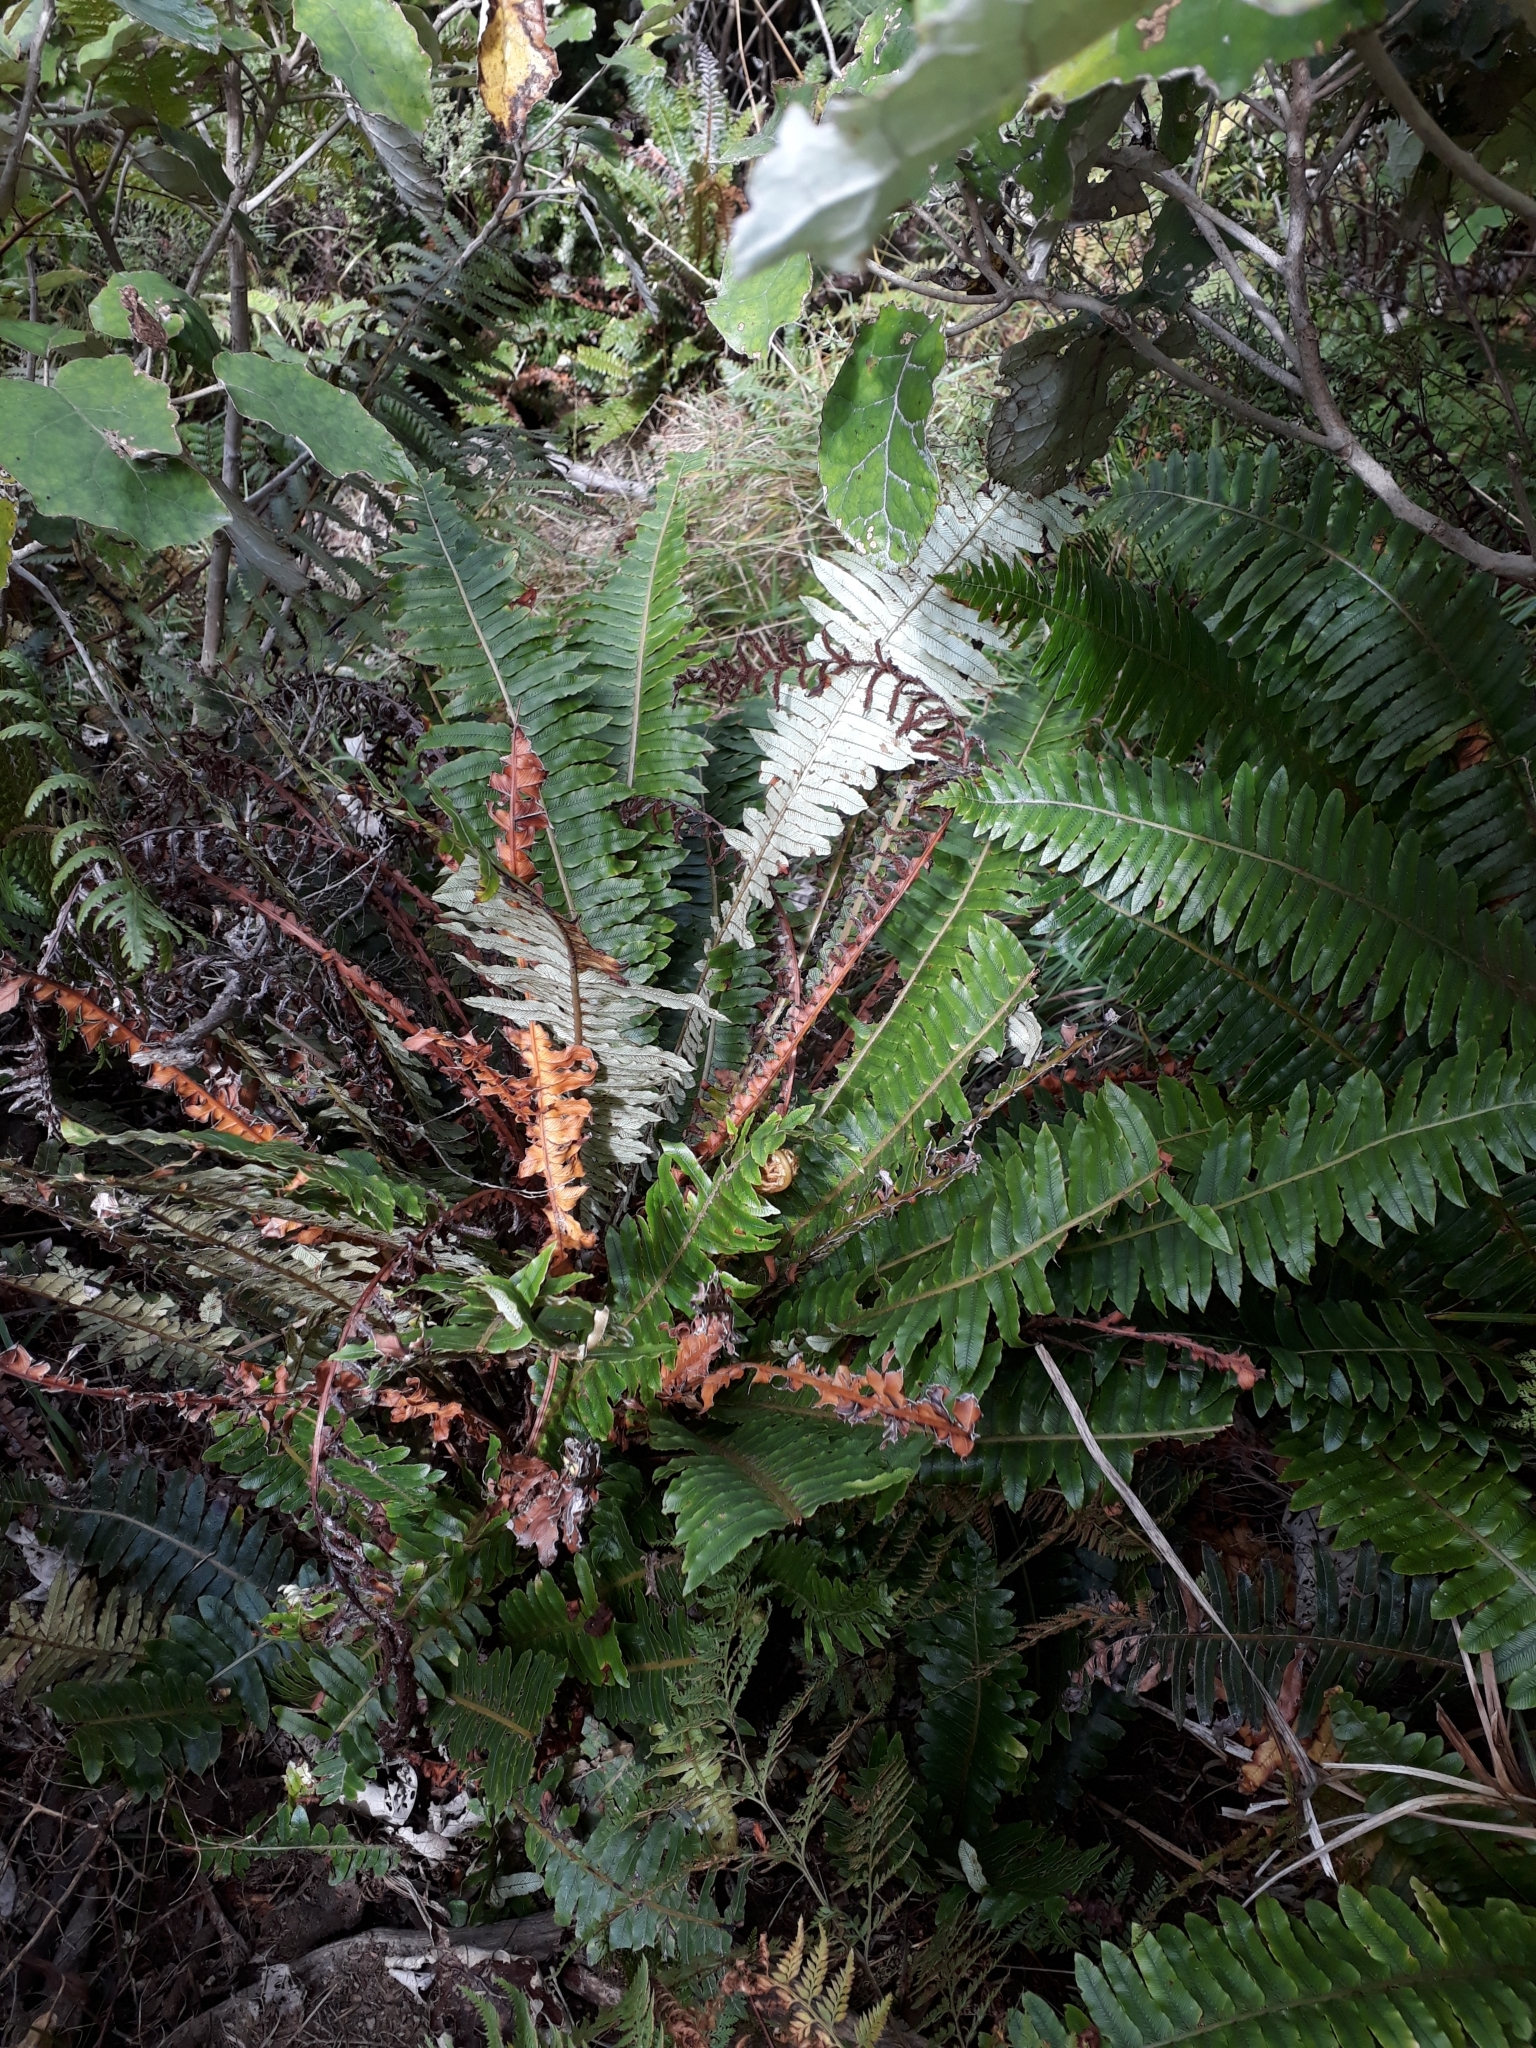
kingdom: Plantae
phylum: Tracheophyta
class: Polypodiopsida
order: Polypodiales
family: Blechnaceae
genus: Lomaria
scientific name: Lomaria discolor
